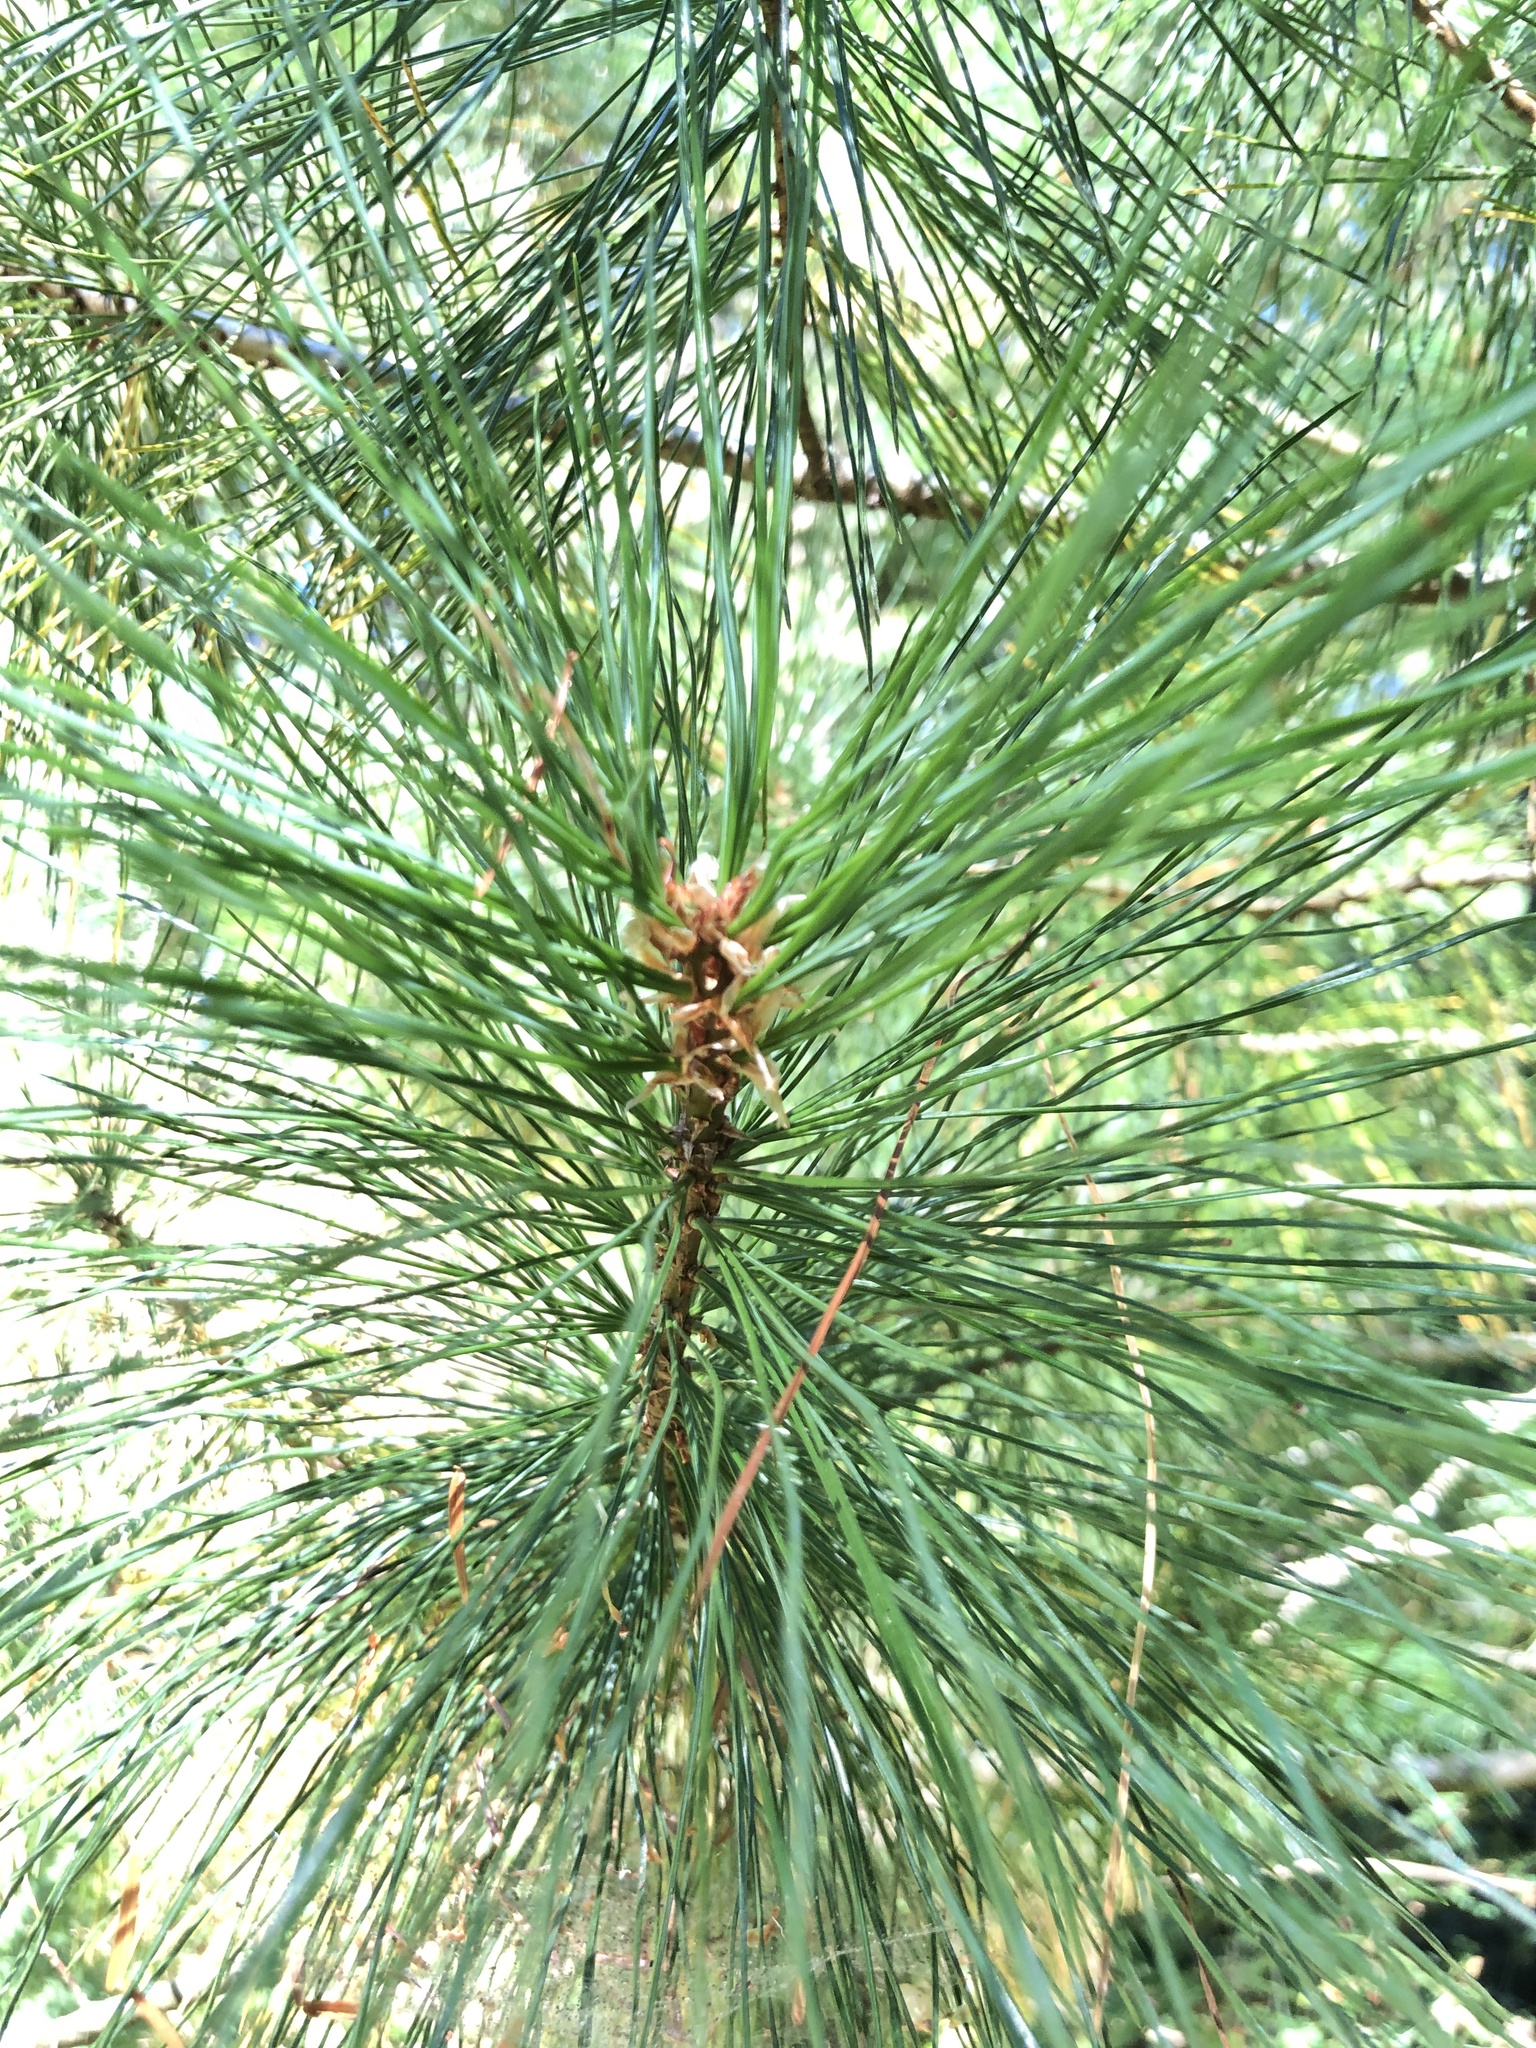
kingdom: Plantae
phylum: Tracheophyta
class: Pinopsida
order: Pinales
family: Pinaceae
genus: Pinus
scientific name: Pinus monticola
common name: Western white pine
